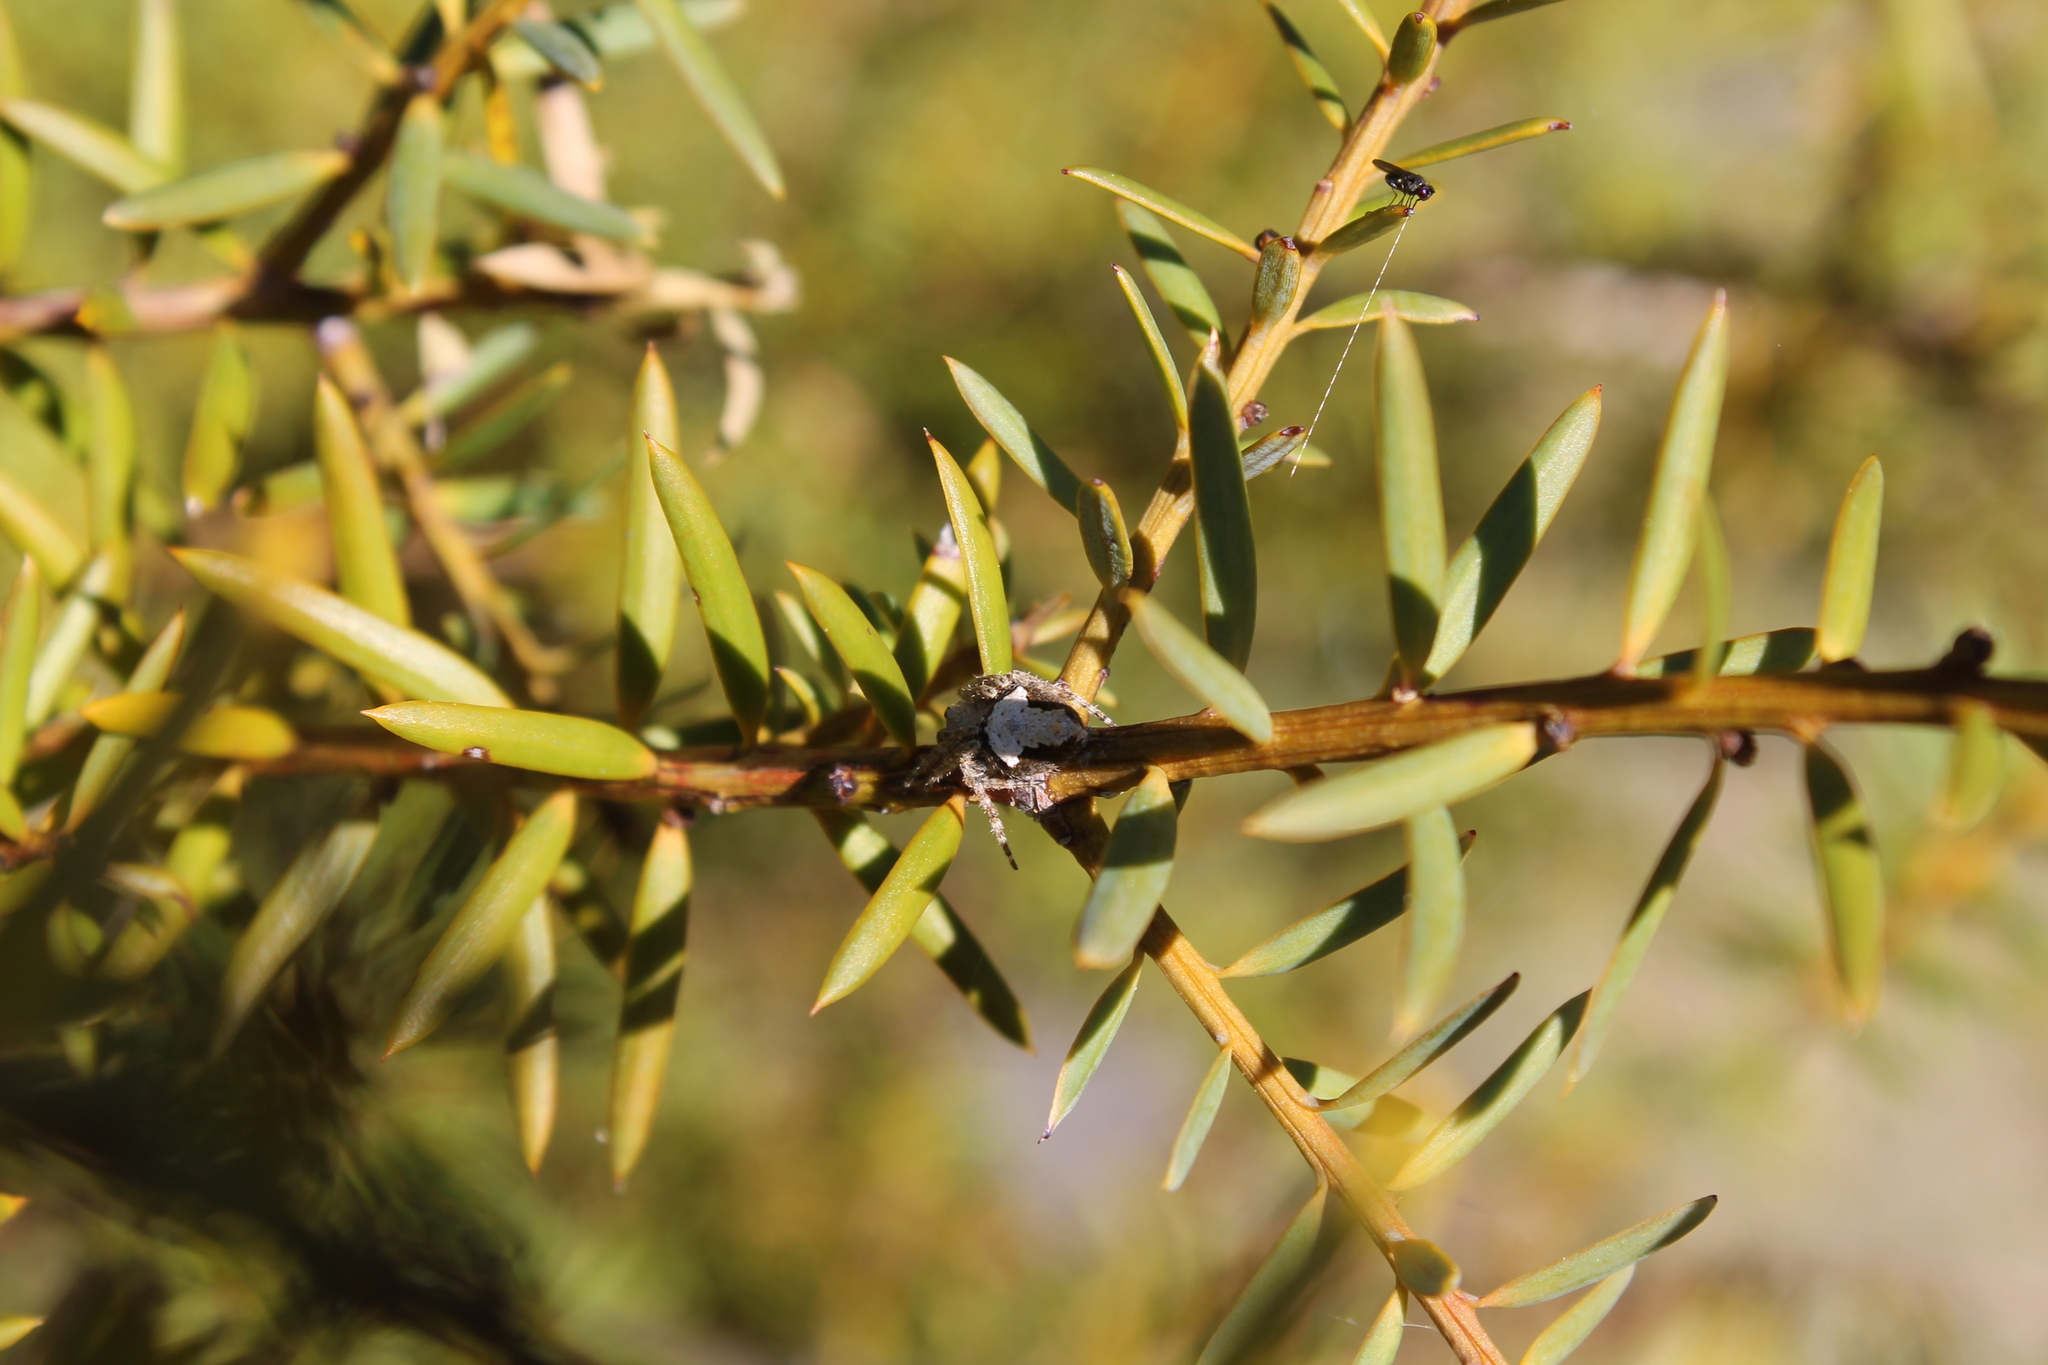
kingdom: Animalia
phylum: Arthropoda
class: Arachnida
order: Araneae
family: Araneidae
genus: Eriophora
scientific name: Eriophora pustulosa
